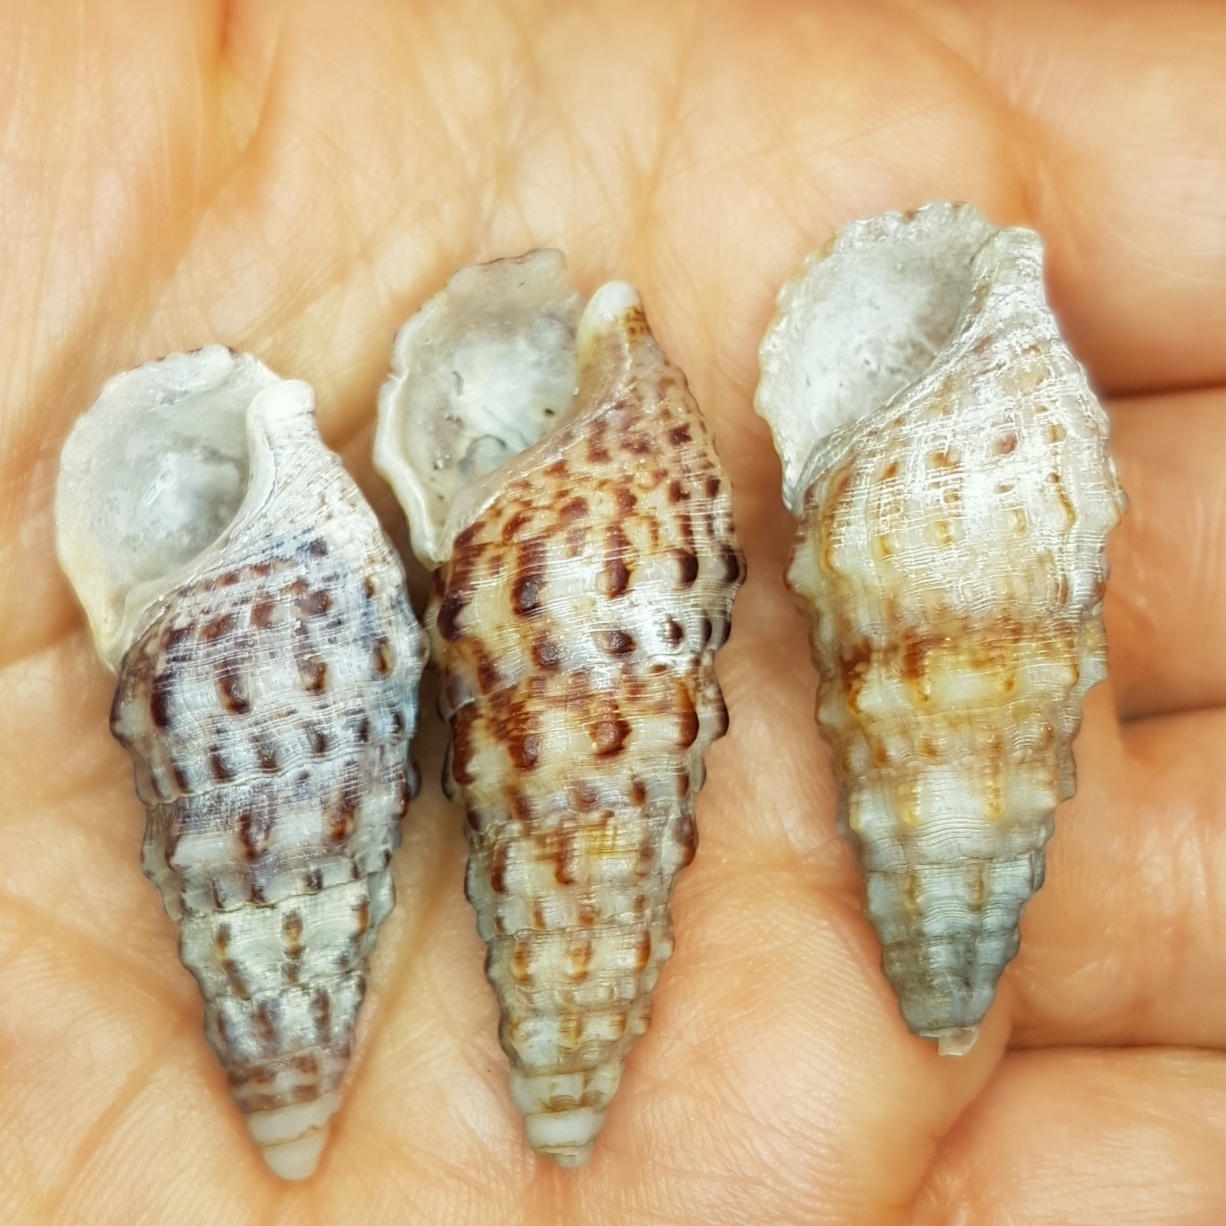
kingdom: Animalia
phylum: Mollusca
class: Gastropoda
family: Cerithiidae
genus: Cerithium
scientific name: Cerithium vulgatum
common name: European cerith
